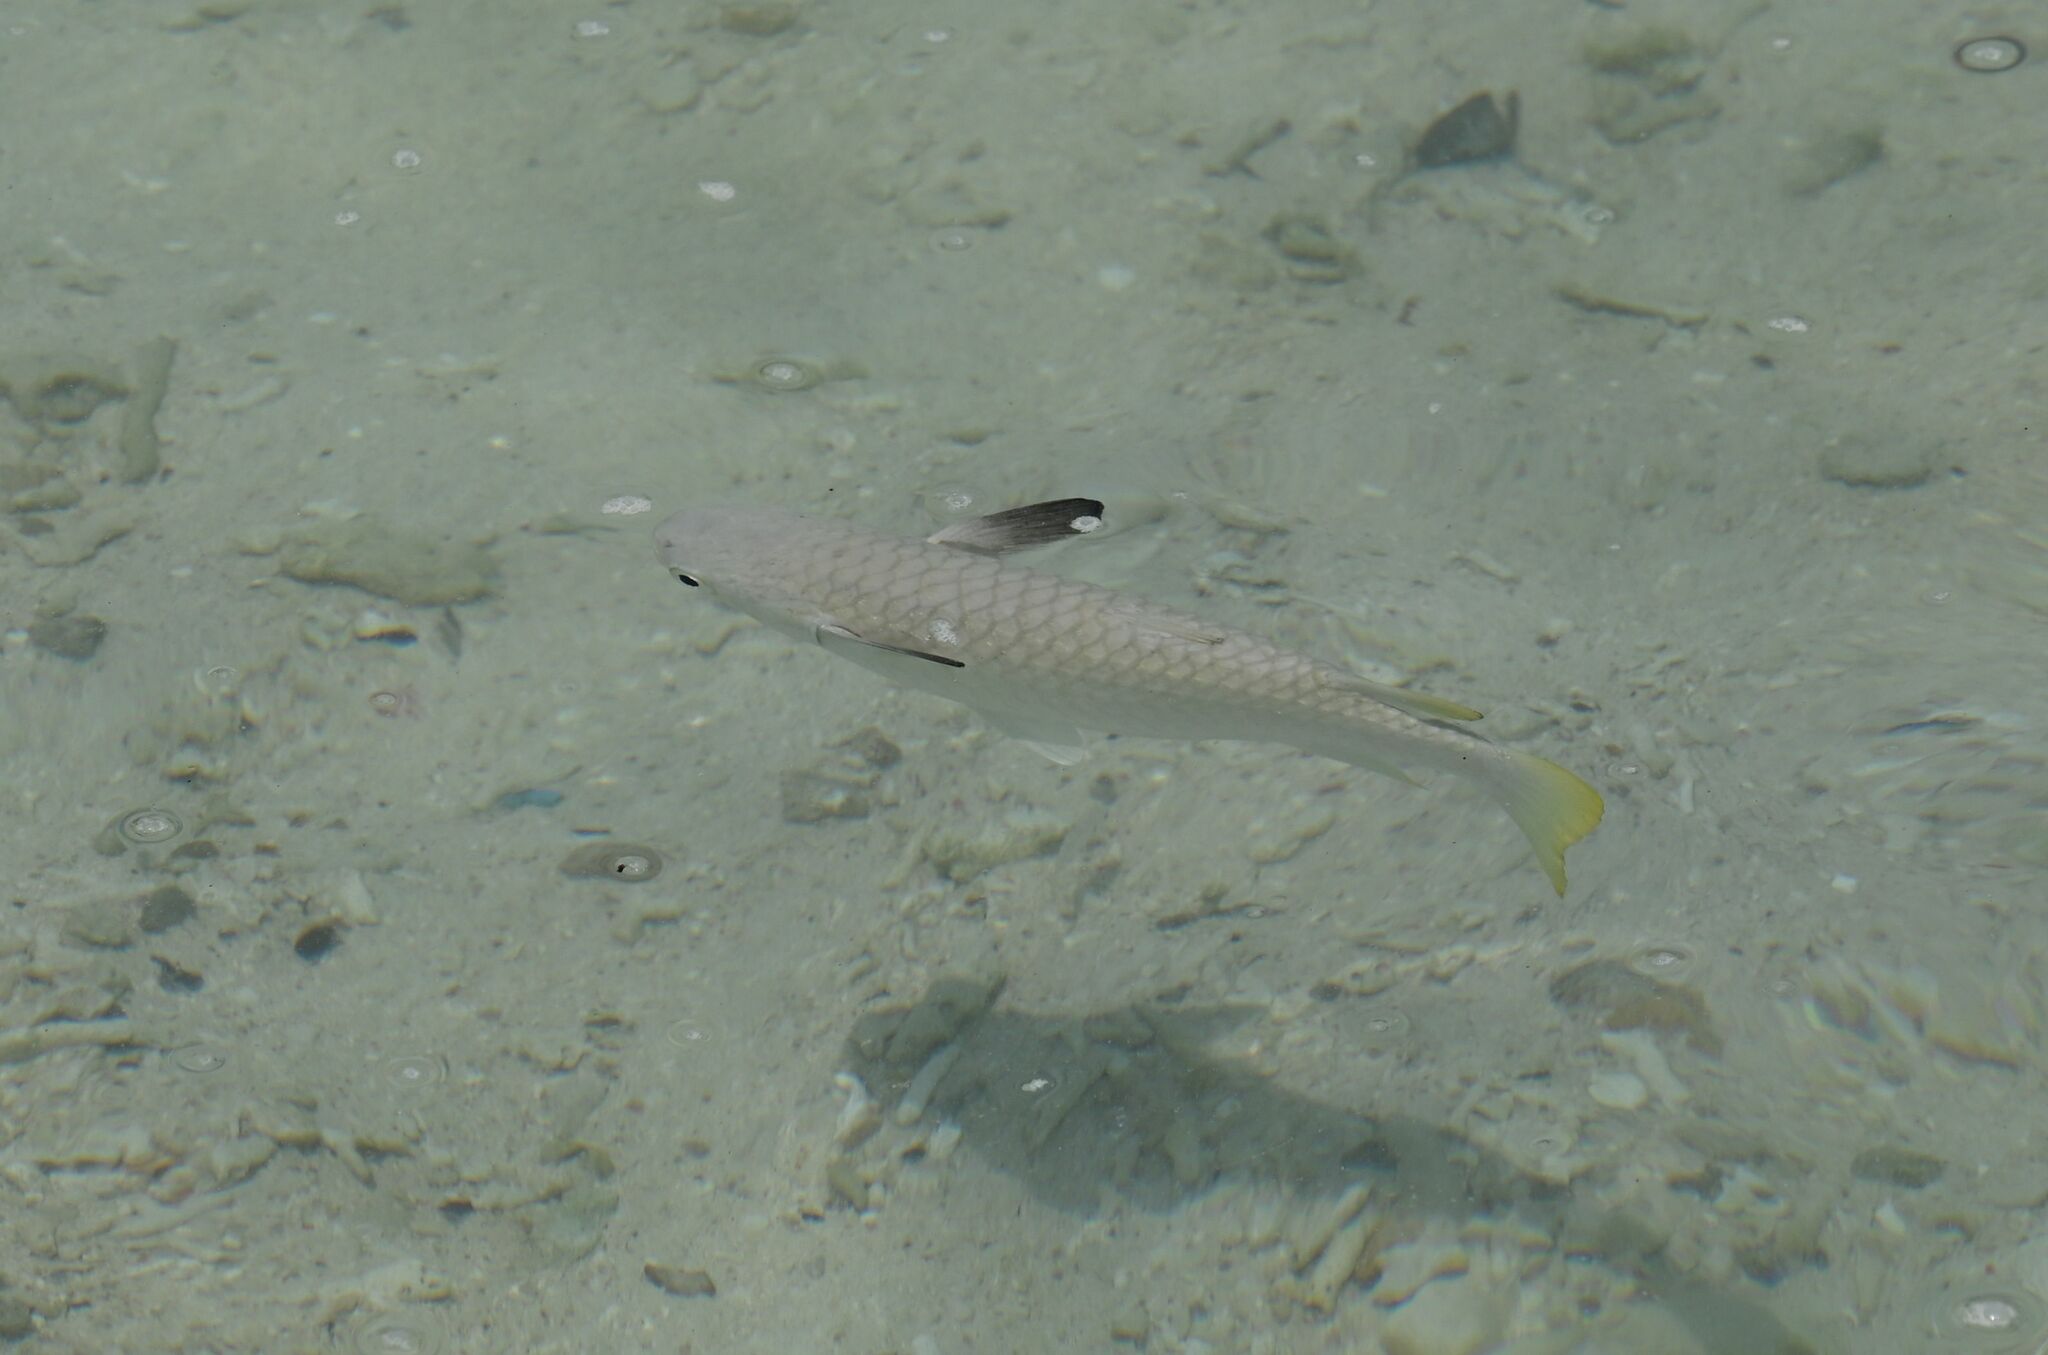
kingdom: Animalia
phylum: Chordata
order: Mugiliformes
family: Mugilidae
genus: Ellochelon
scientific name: Ellochelon vaigiensis
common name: Squaretail mullet
